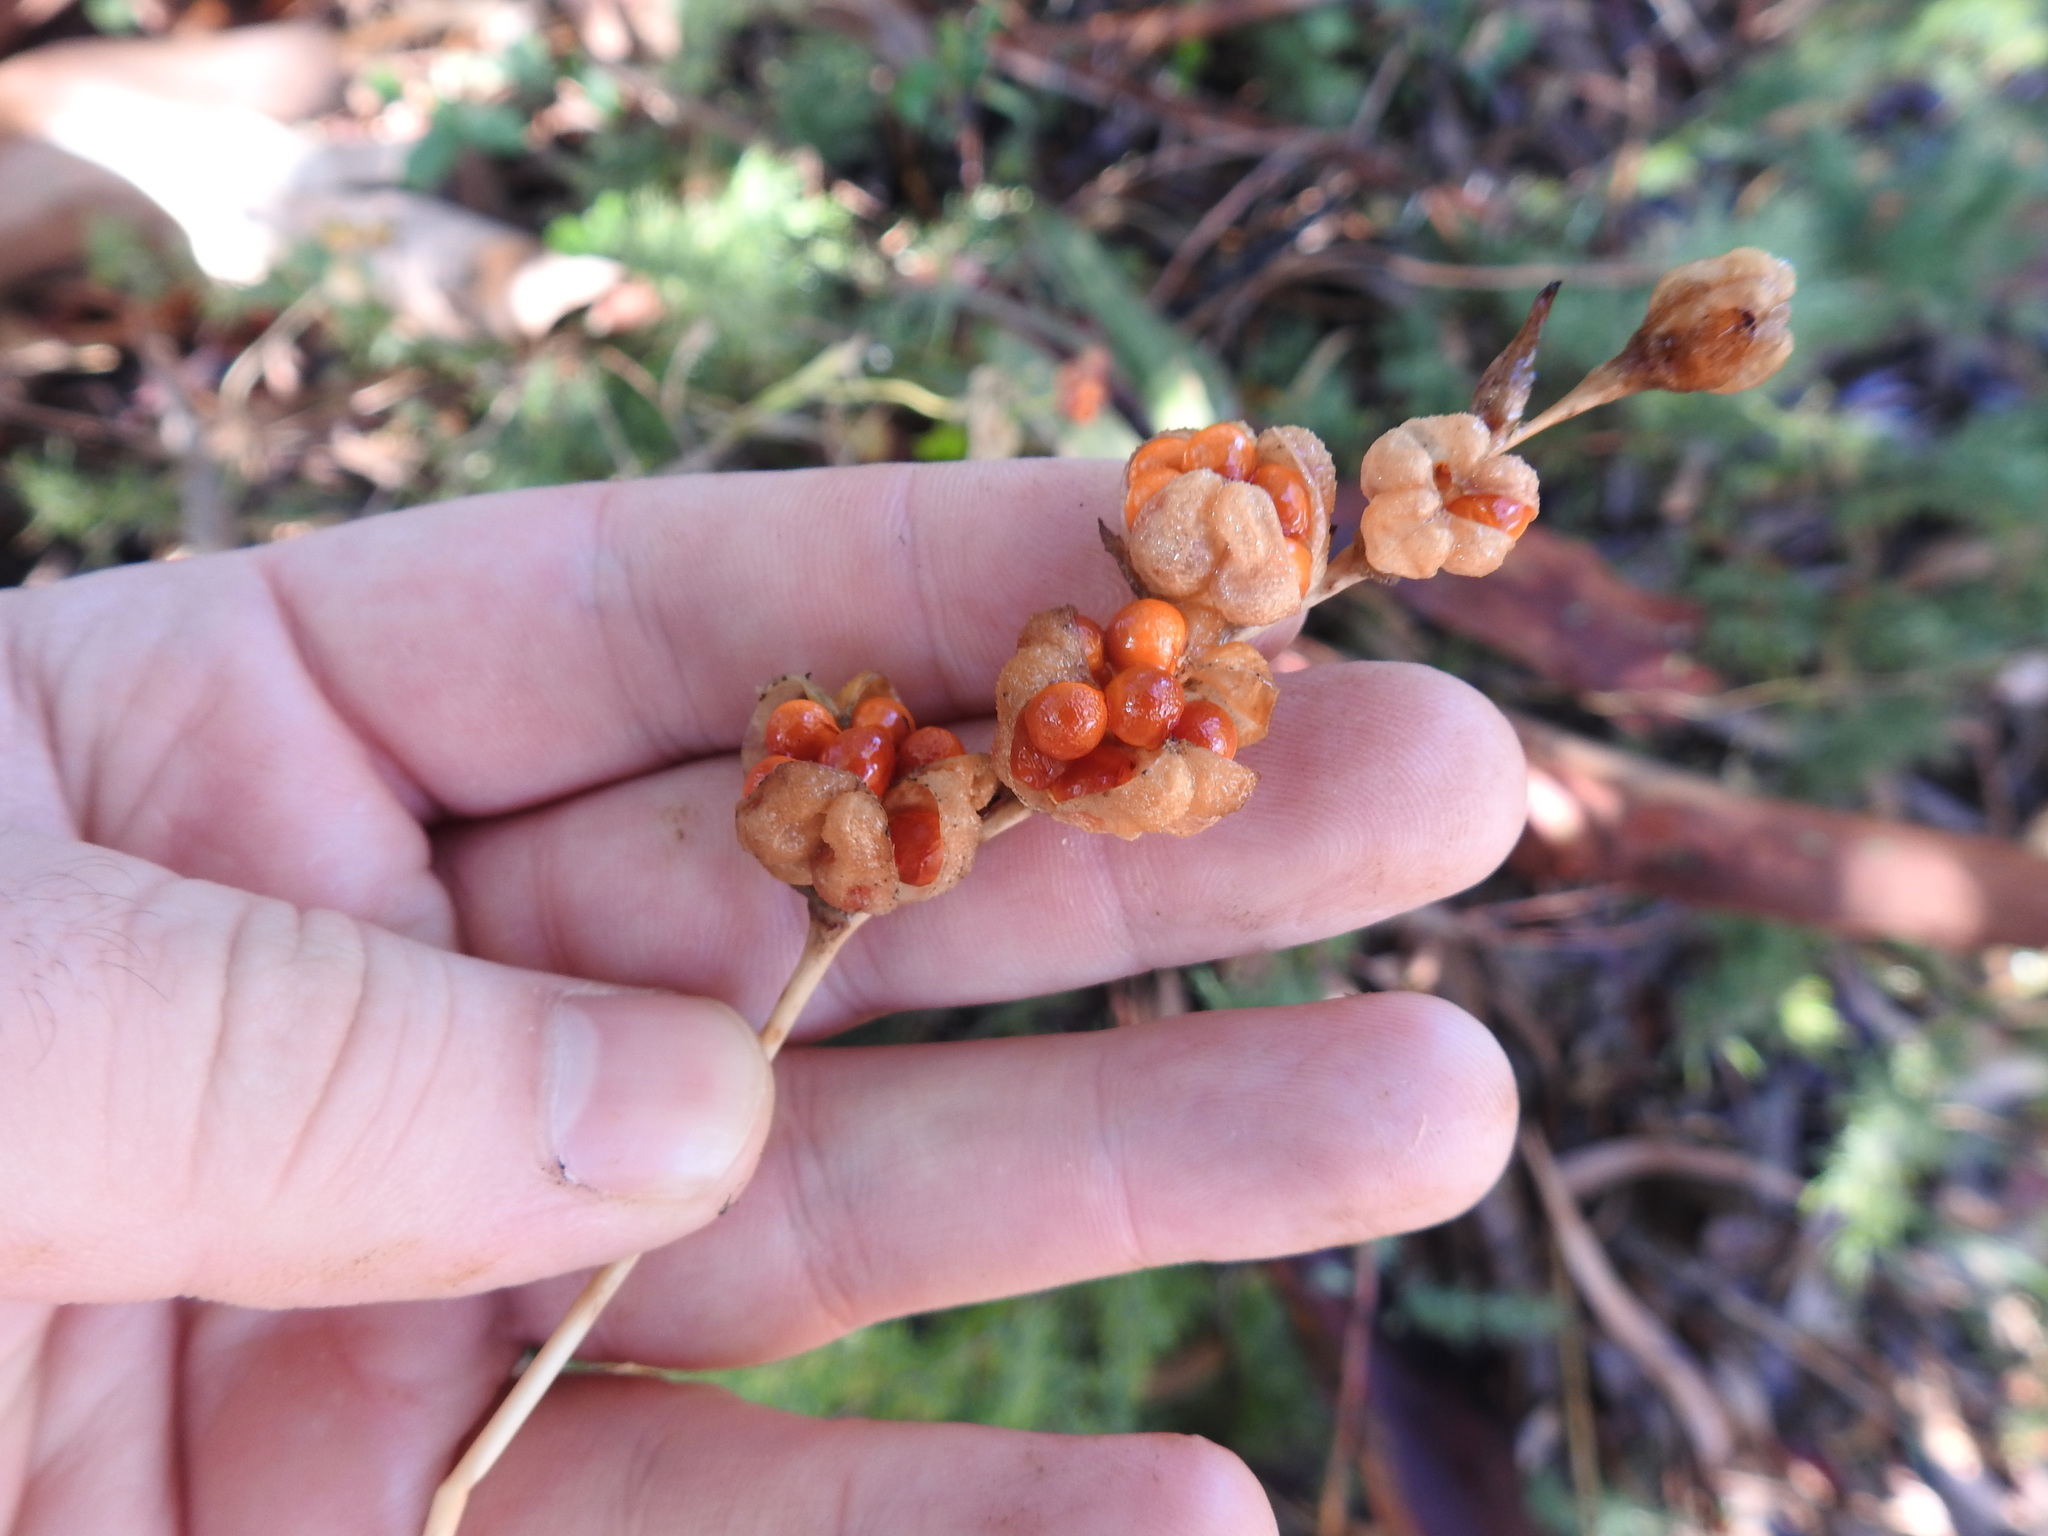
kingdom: Plantae
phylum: Tracheophyta
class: Liliopsida
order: Asparagales
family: Iridaceae
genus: Freesia
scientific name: Freesia grandiflora
